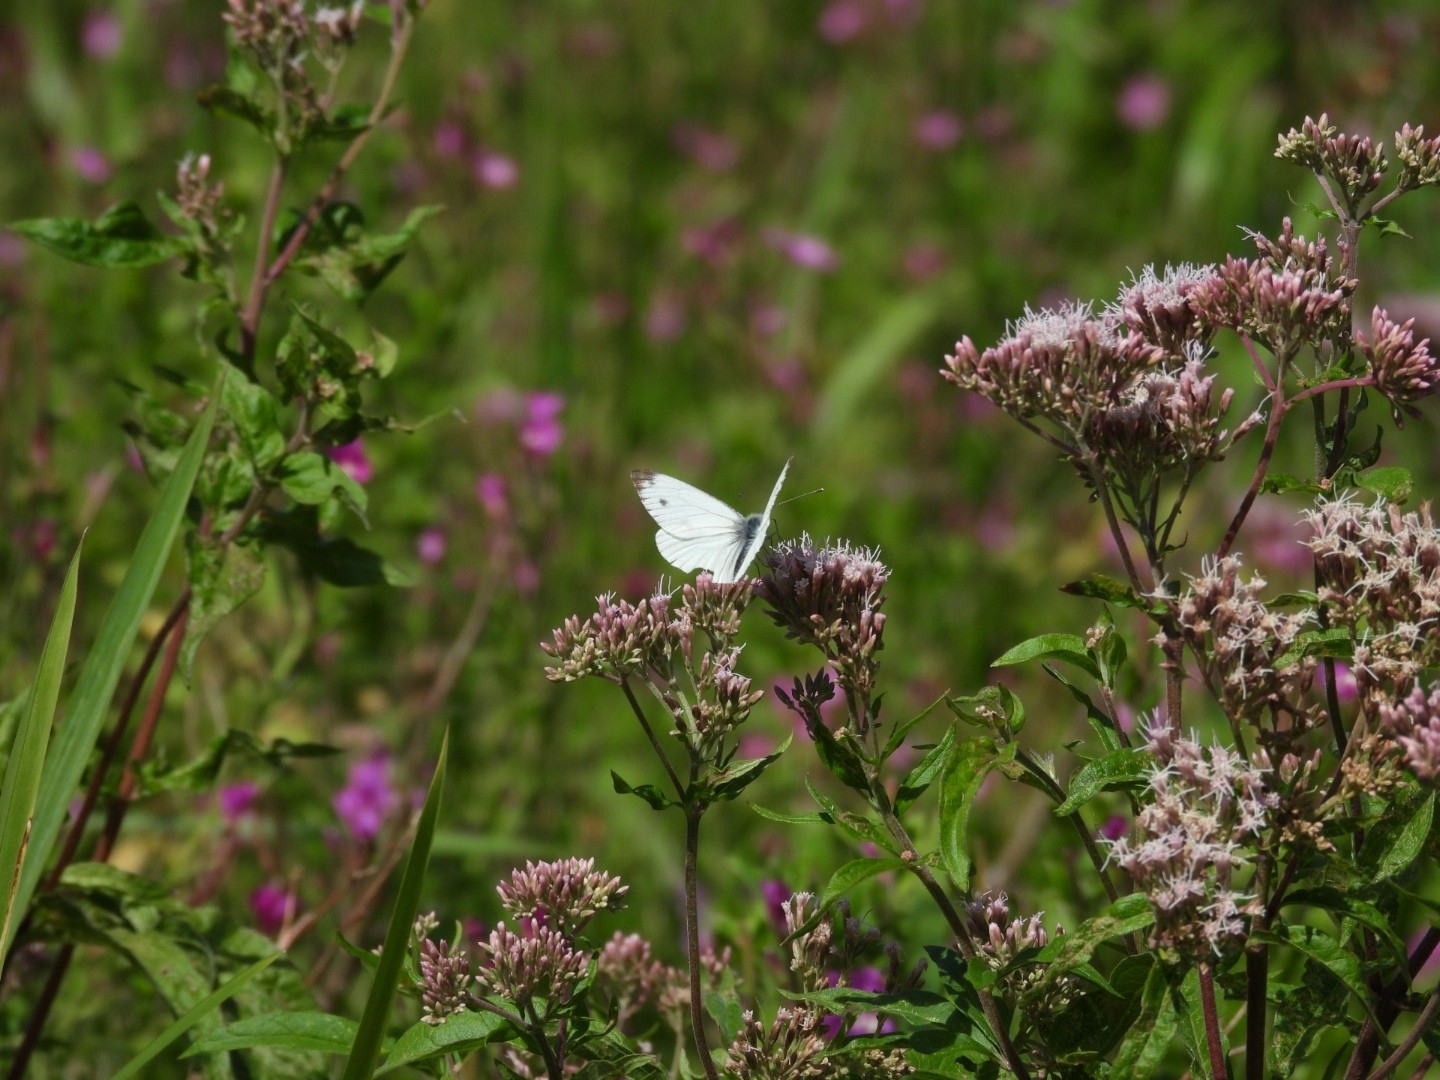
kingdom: Animalia
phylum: Arthropoda
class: Insecta
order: Lepidoptera
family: Pieridae
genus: Pieris
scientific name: Pieris napi
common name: Green-veined white
